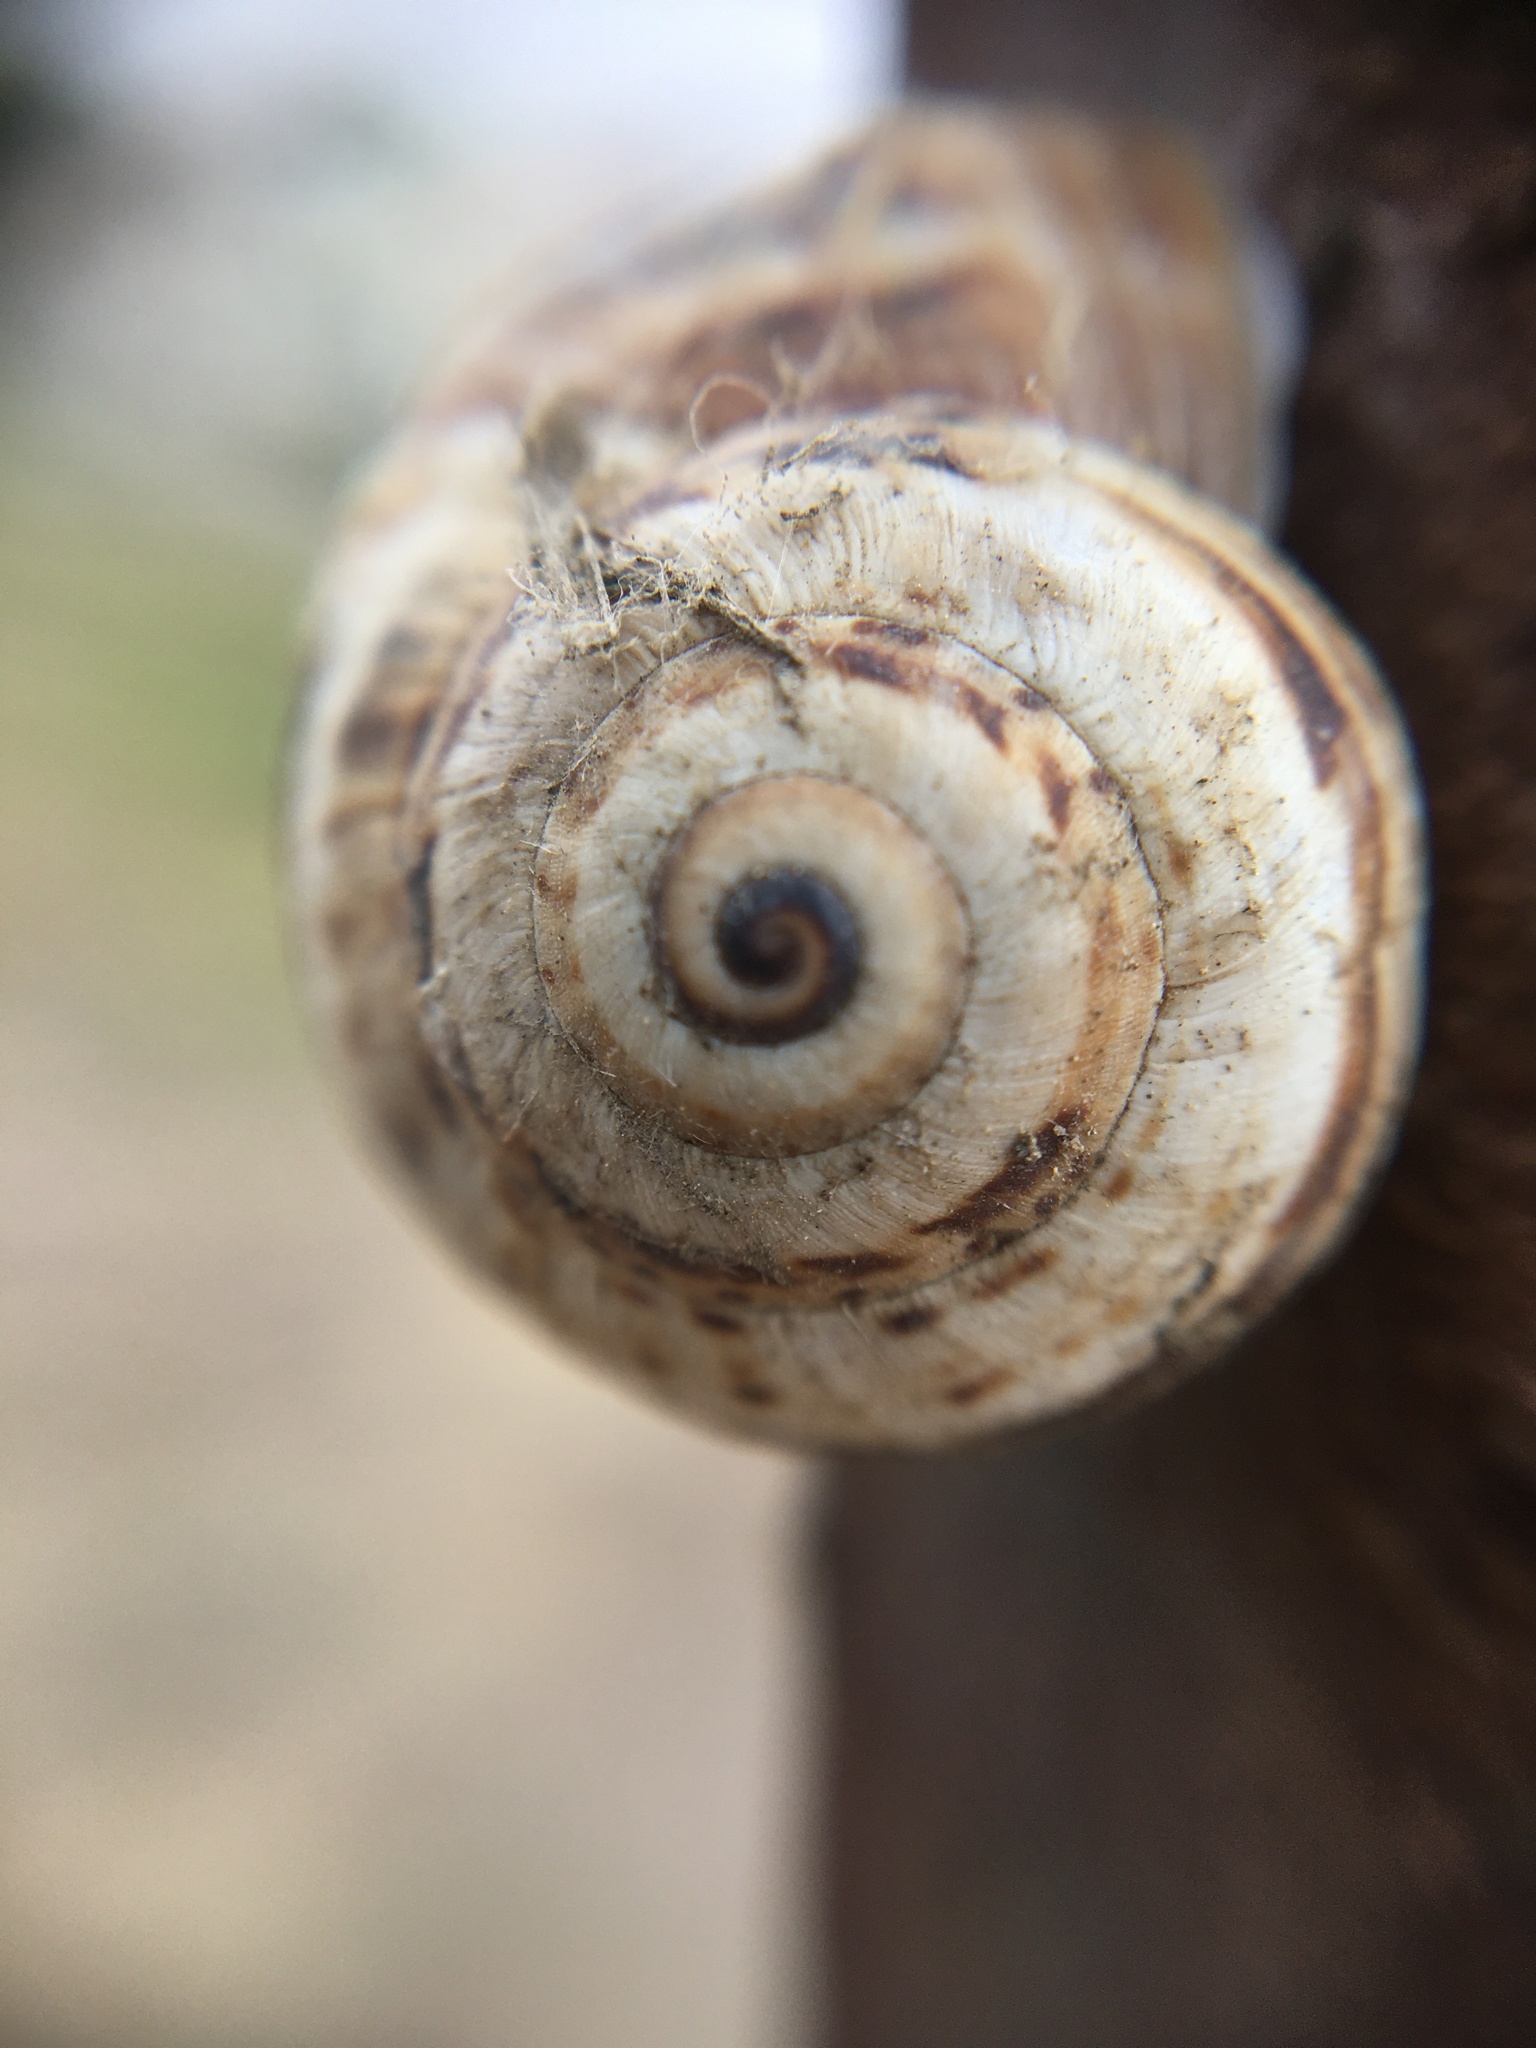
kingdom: Animalia
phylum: Mollusca
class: Gastropoda
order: Stylommatophora
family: Helicidae
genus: Theba
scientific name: Theba pisana
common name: White snail
